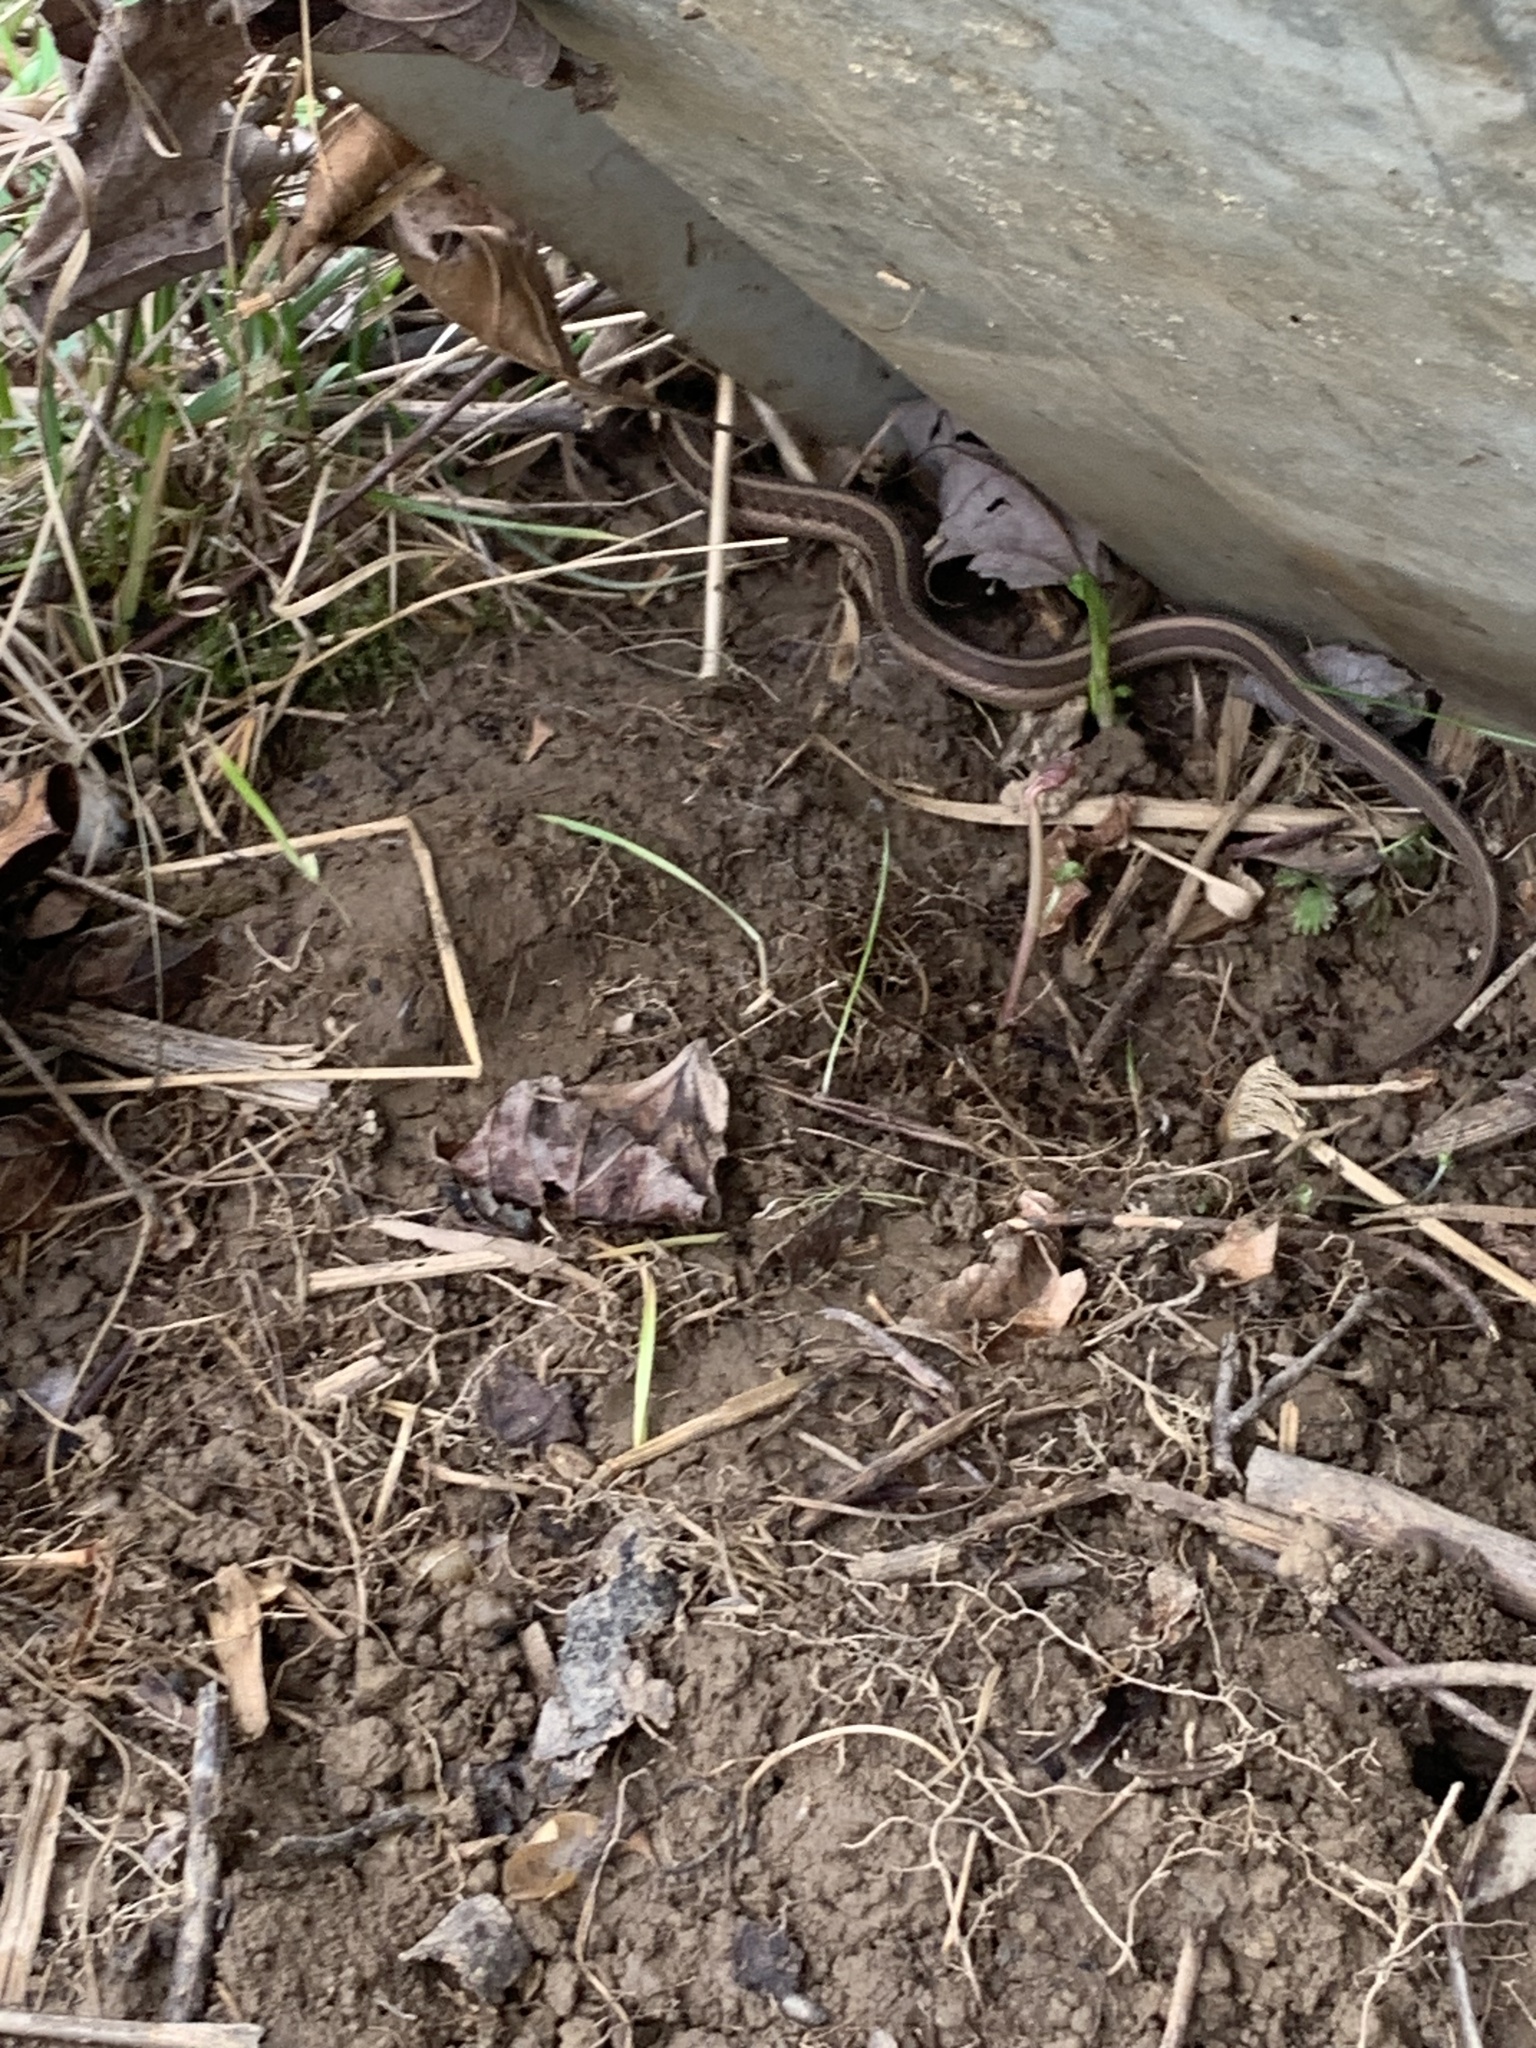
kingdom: Animalia
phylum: Chordata
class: Squamata
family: Colubridae
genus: Thamnophis
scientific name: Thamnophis sirtalis
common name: Common garter snake
